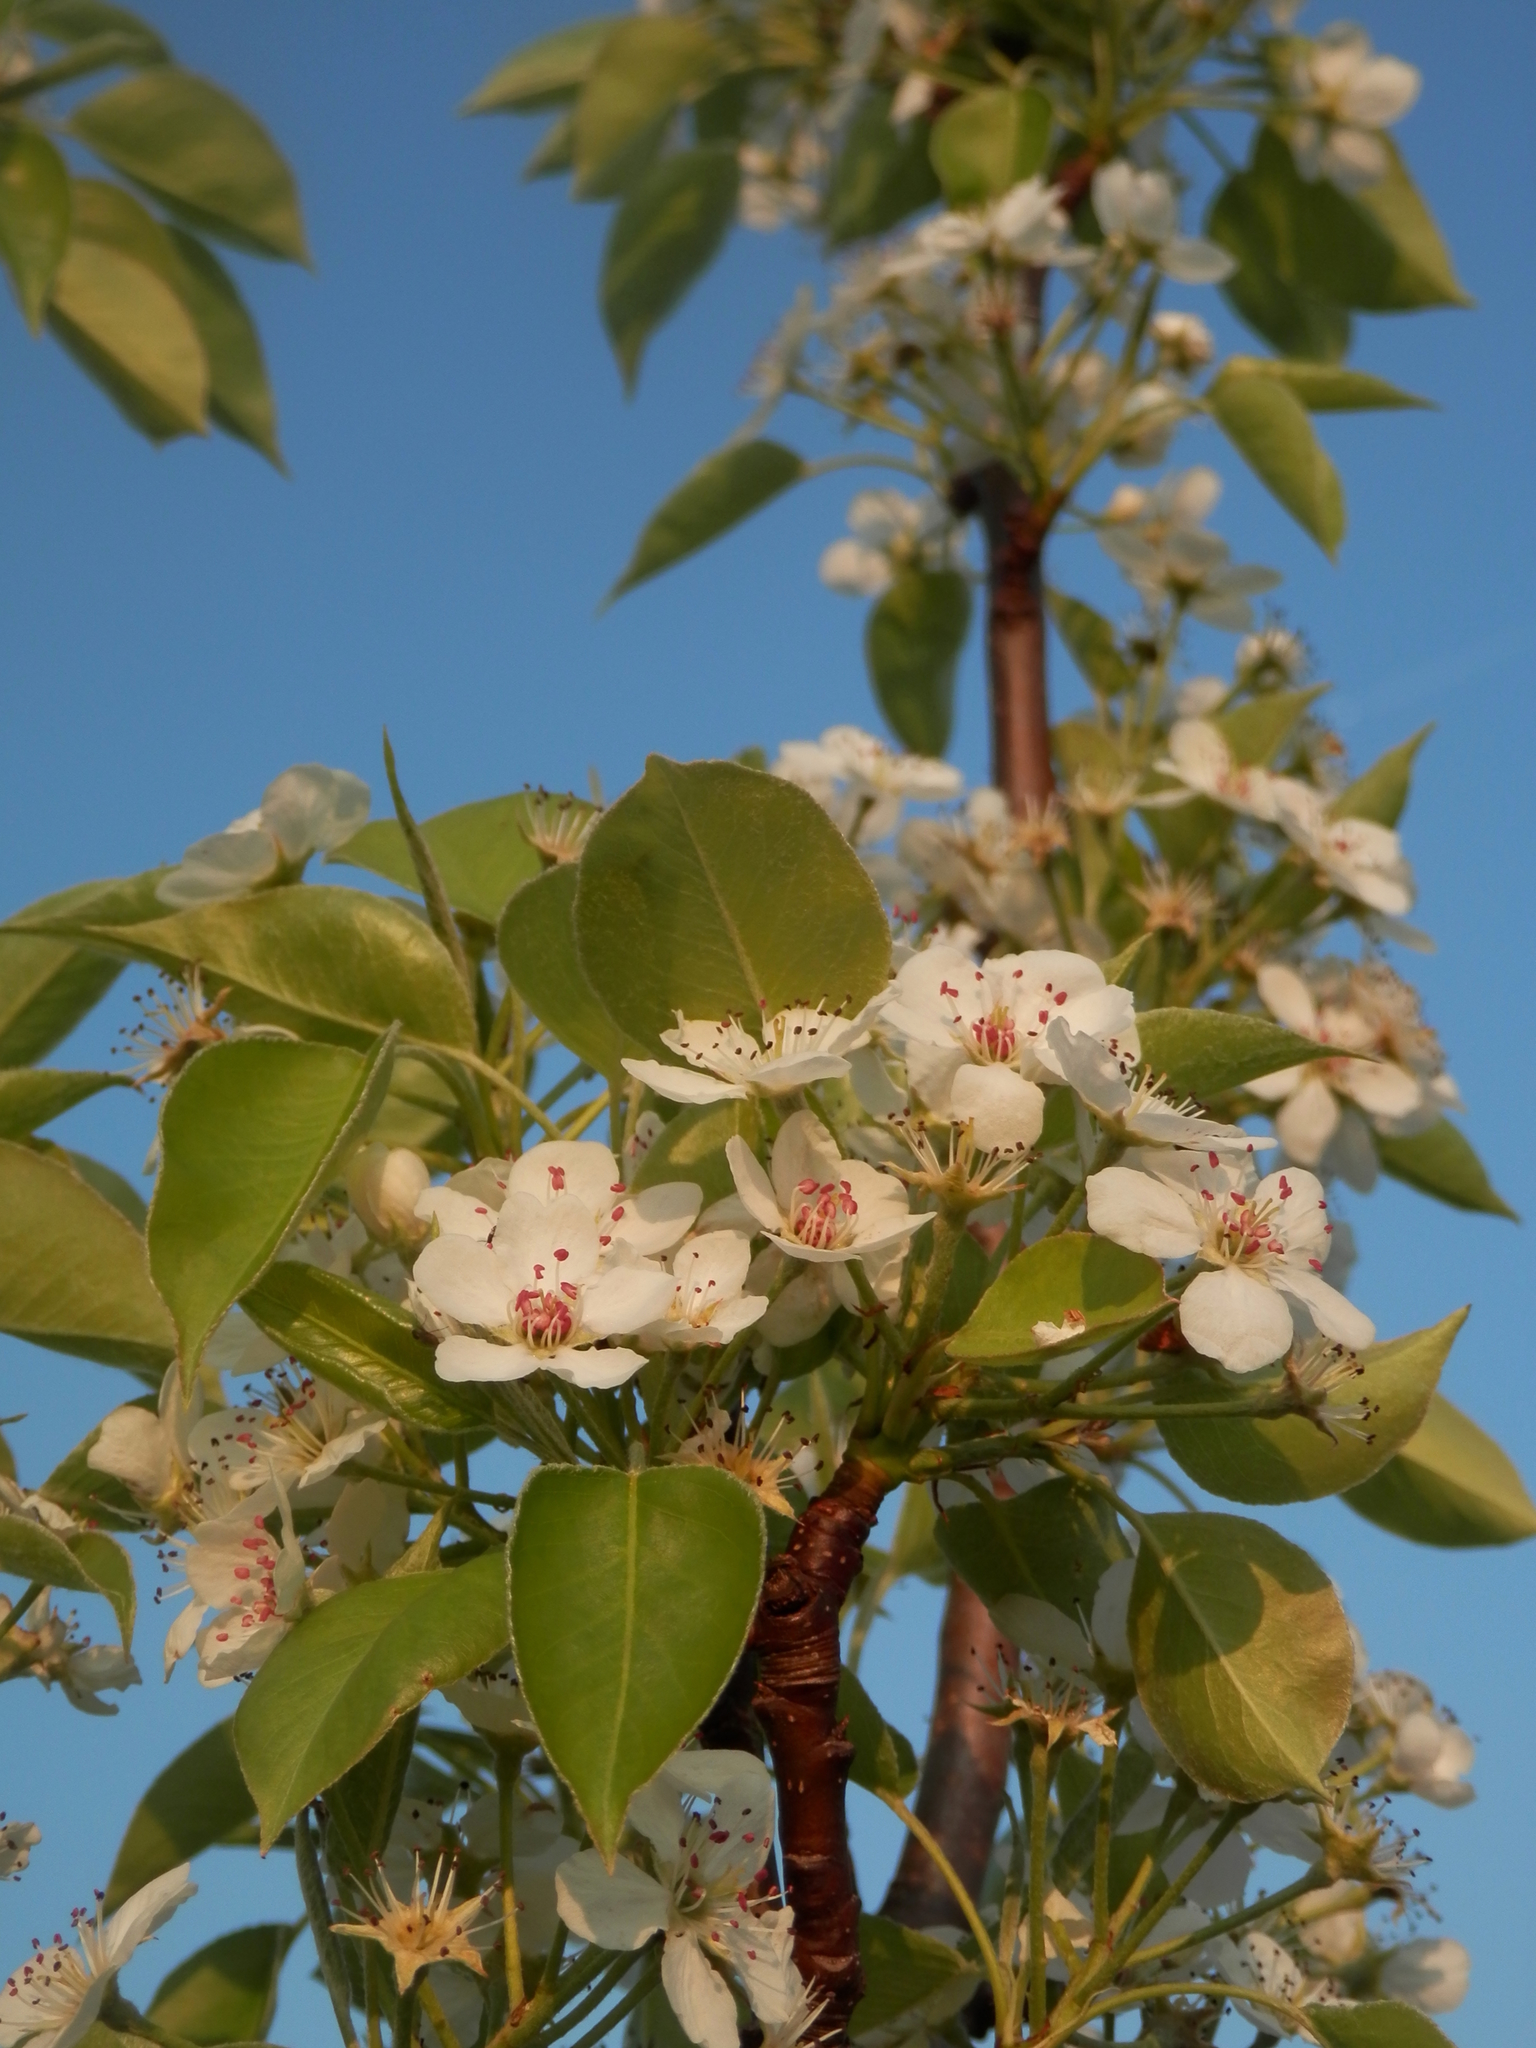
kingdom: Plantae
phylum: Tracheophyta
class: Magnoliopsida
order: Rosales
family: Rosaceae
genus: Pyrus
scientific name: Pyrus communis
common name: Pear
